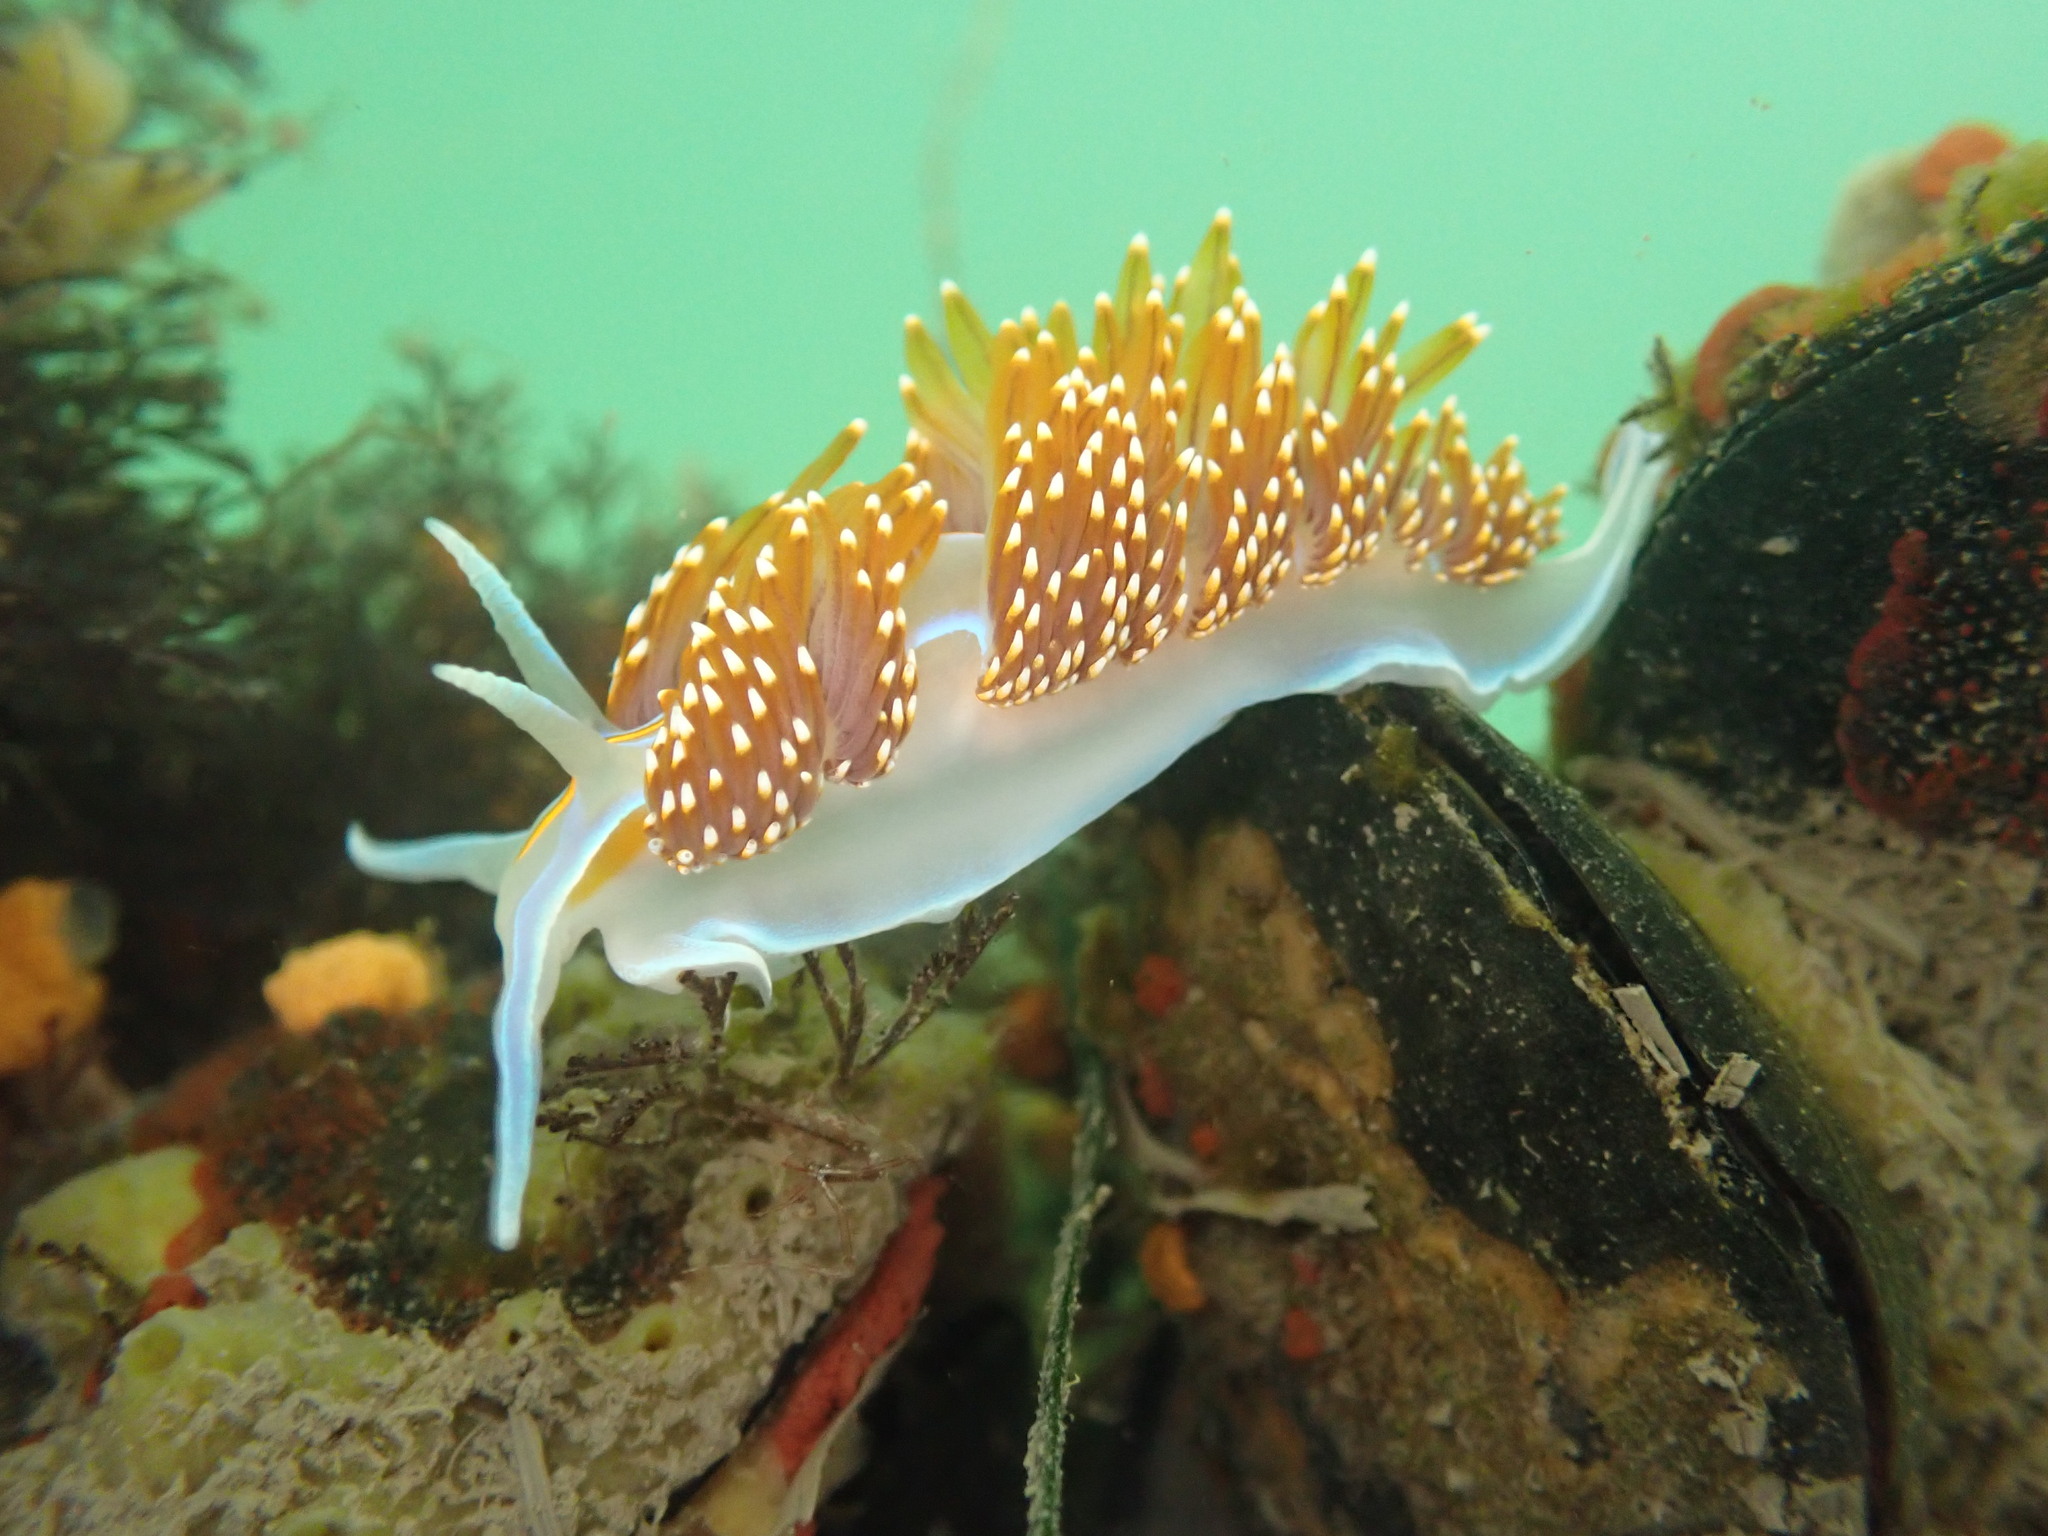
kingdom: Animalia
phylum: Mollusca
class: Gastropoda
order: Nudibranchia
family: Myrrhinidae
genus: Hermissenda
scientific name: Hermissenda opalescens
